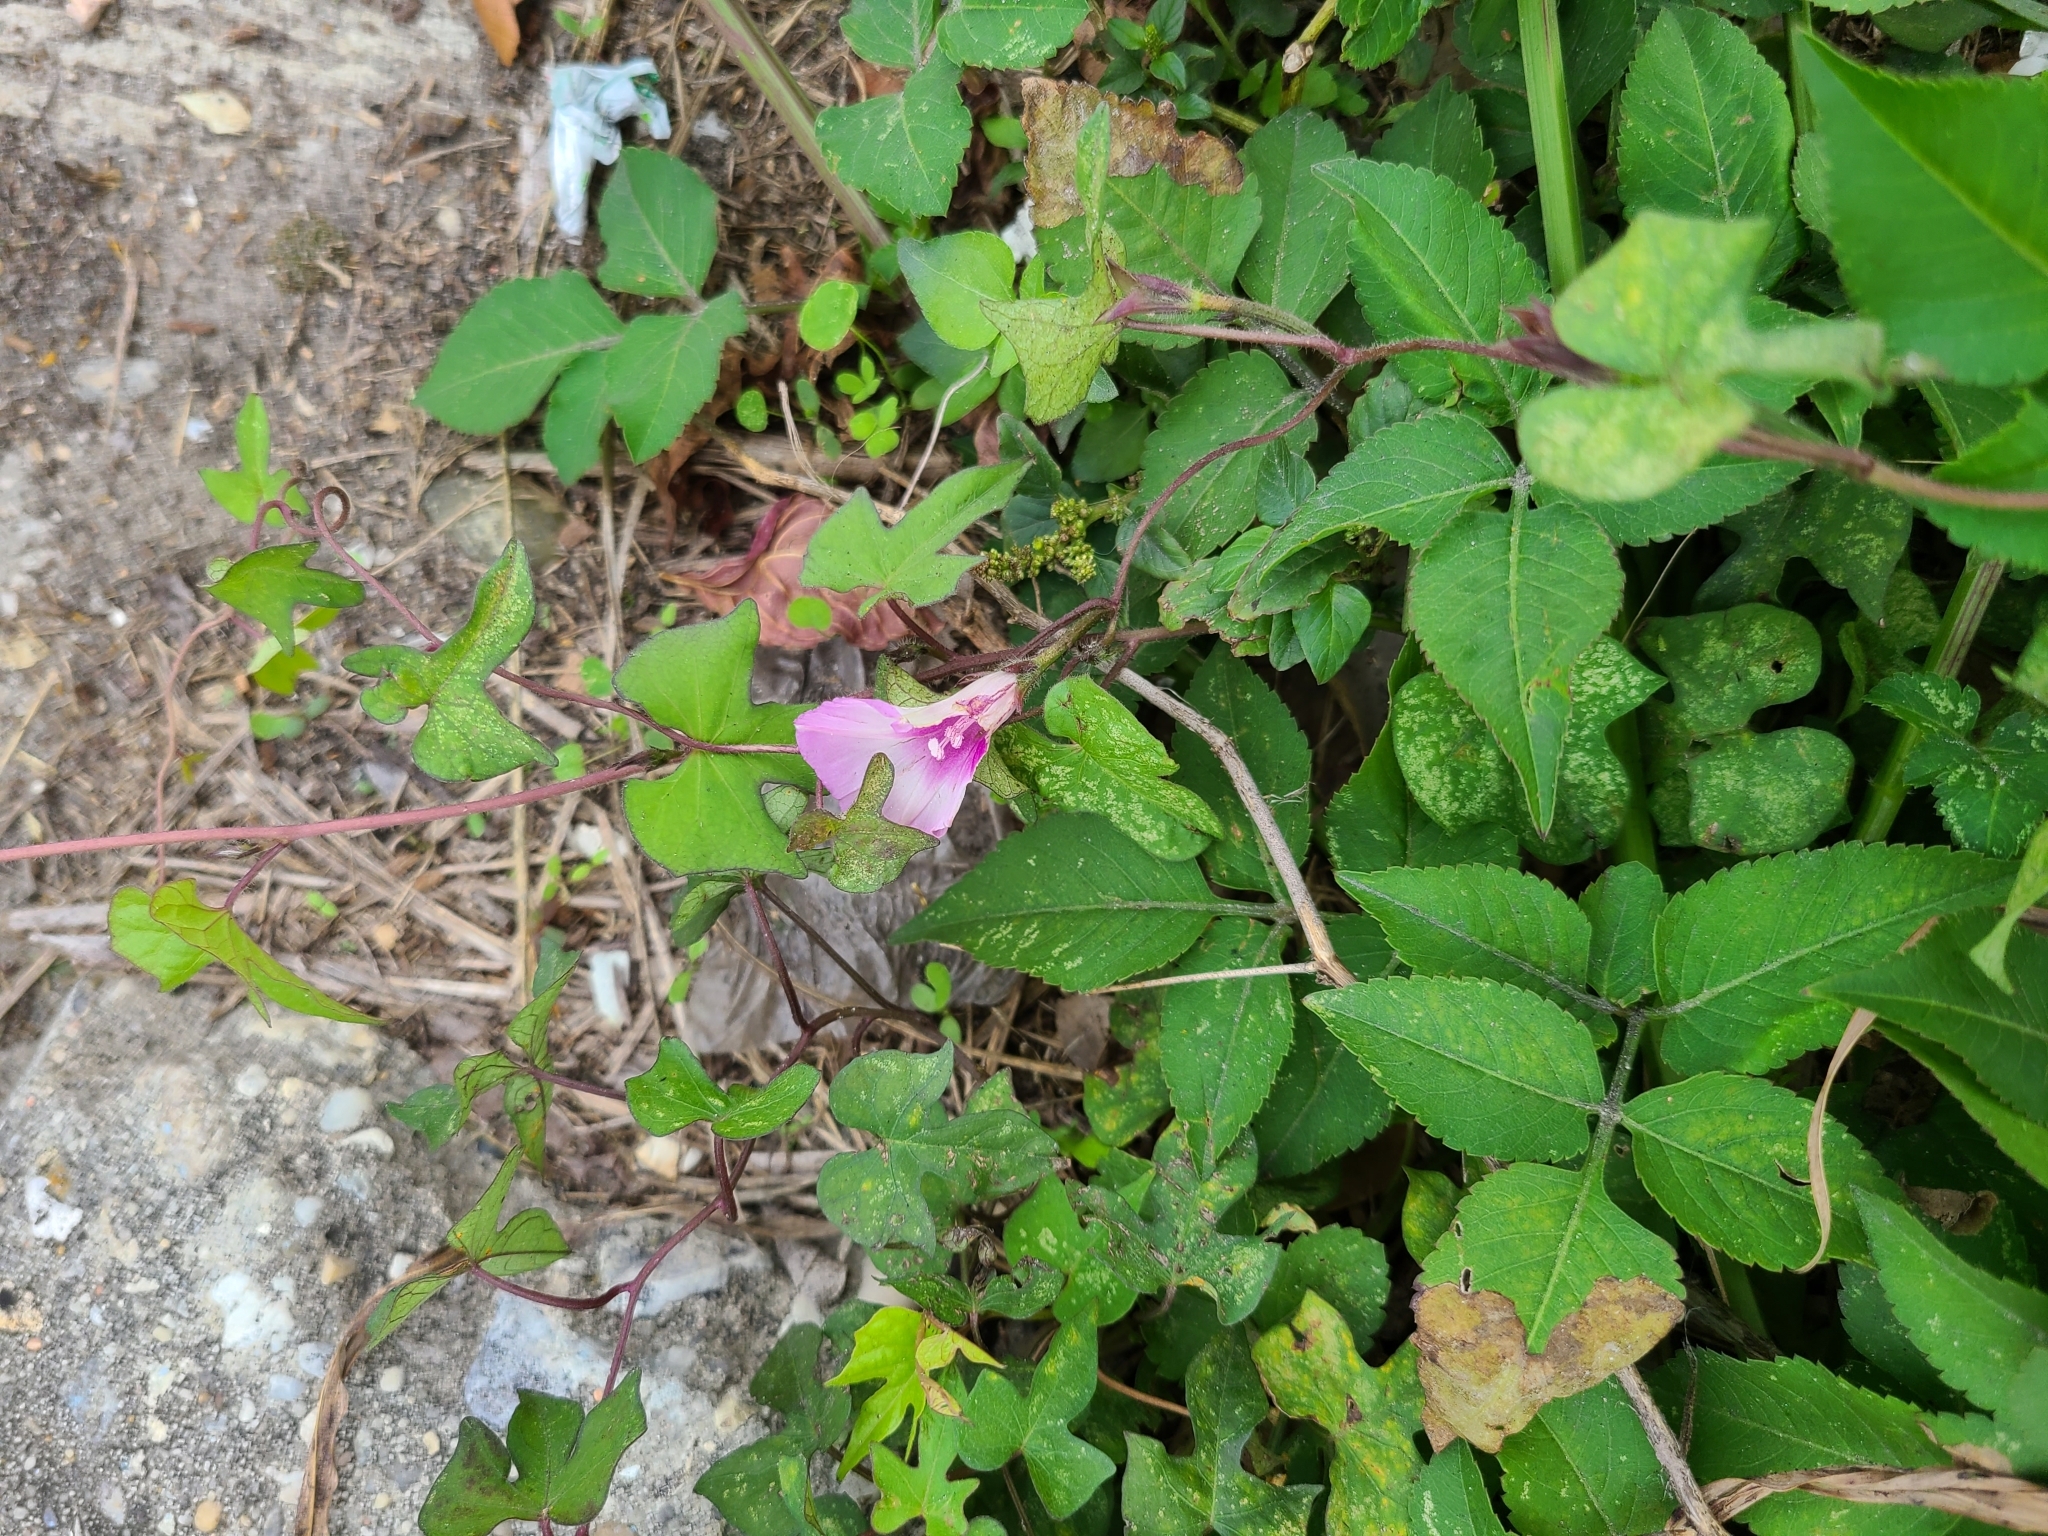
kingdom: Plantae
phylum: Tracheophyta
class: Magnoliopsida
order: Solanales
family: Convolvulaceae
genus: Ipomoea
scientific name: Ipomoea cordatotriloba
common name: Cotton morning glory
